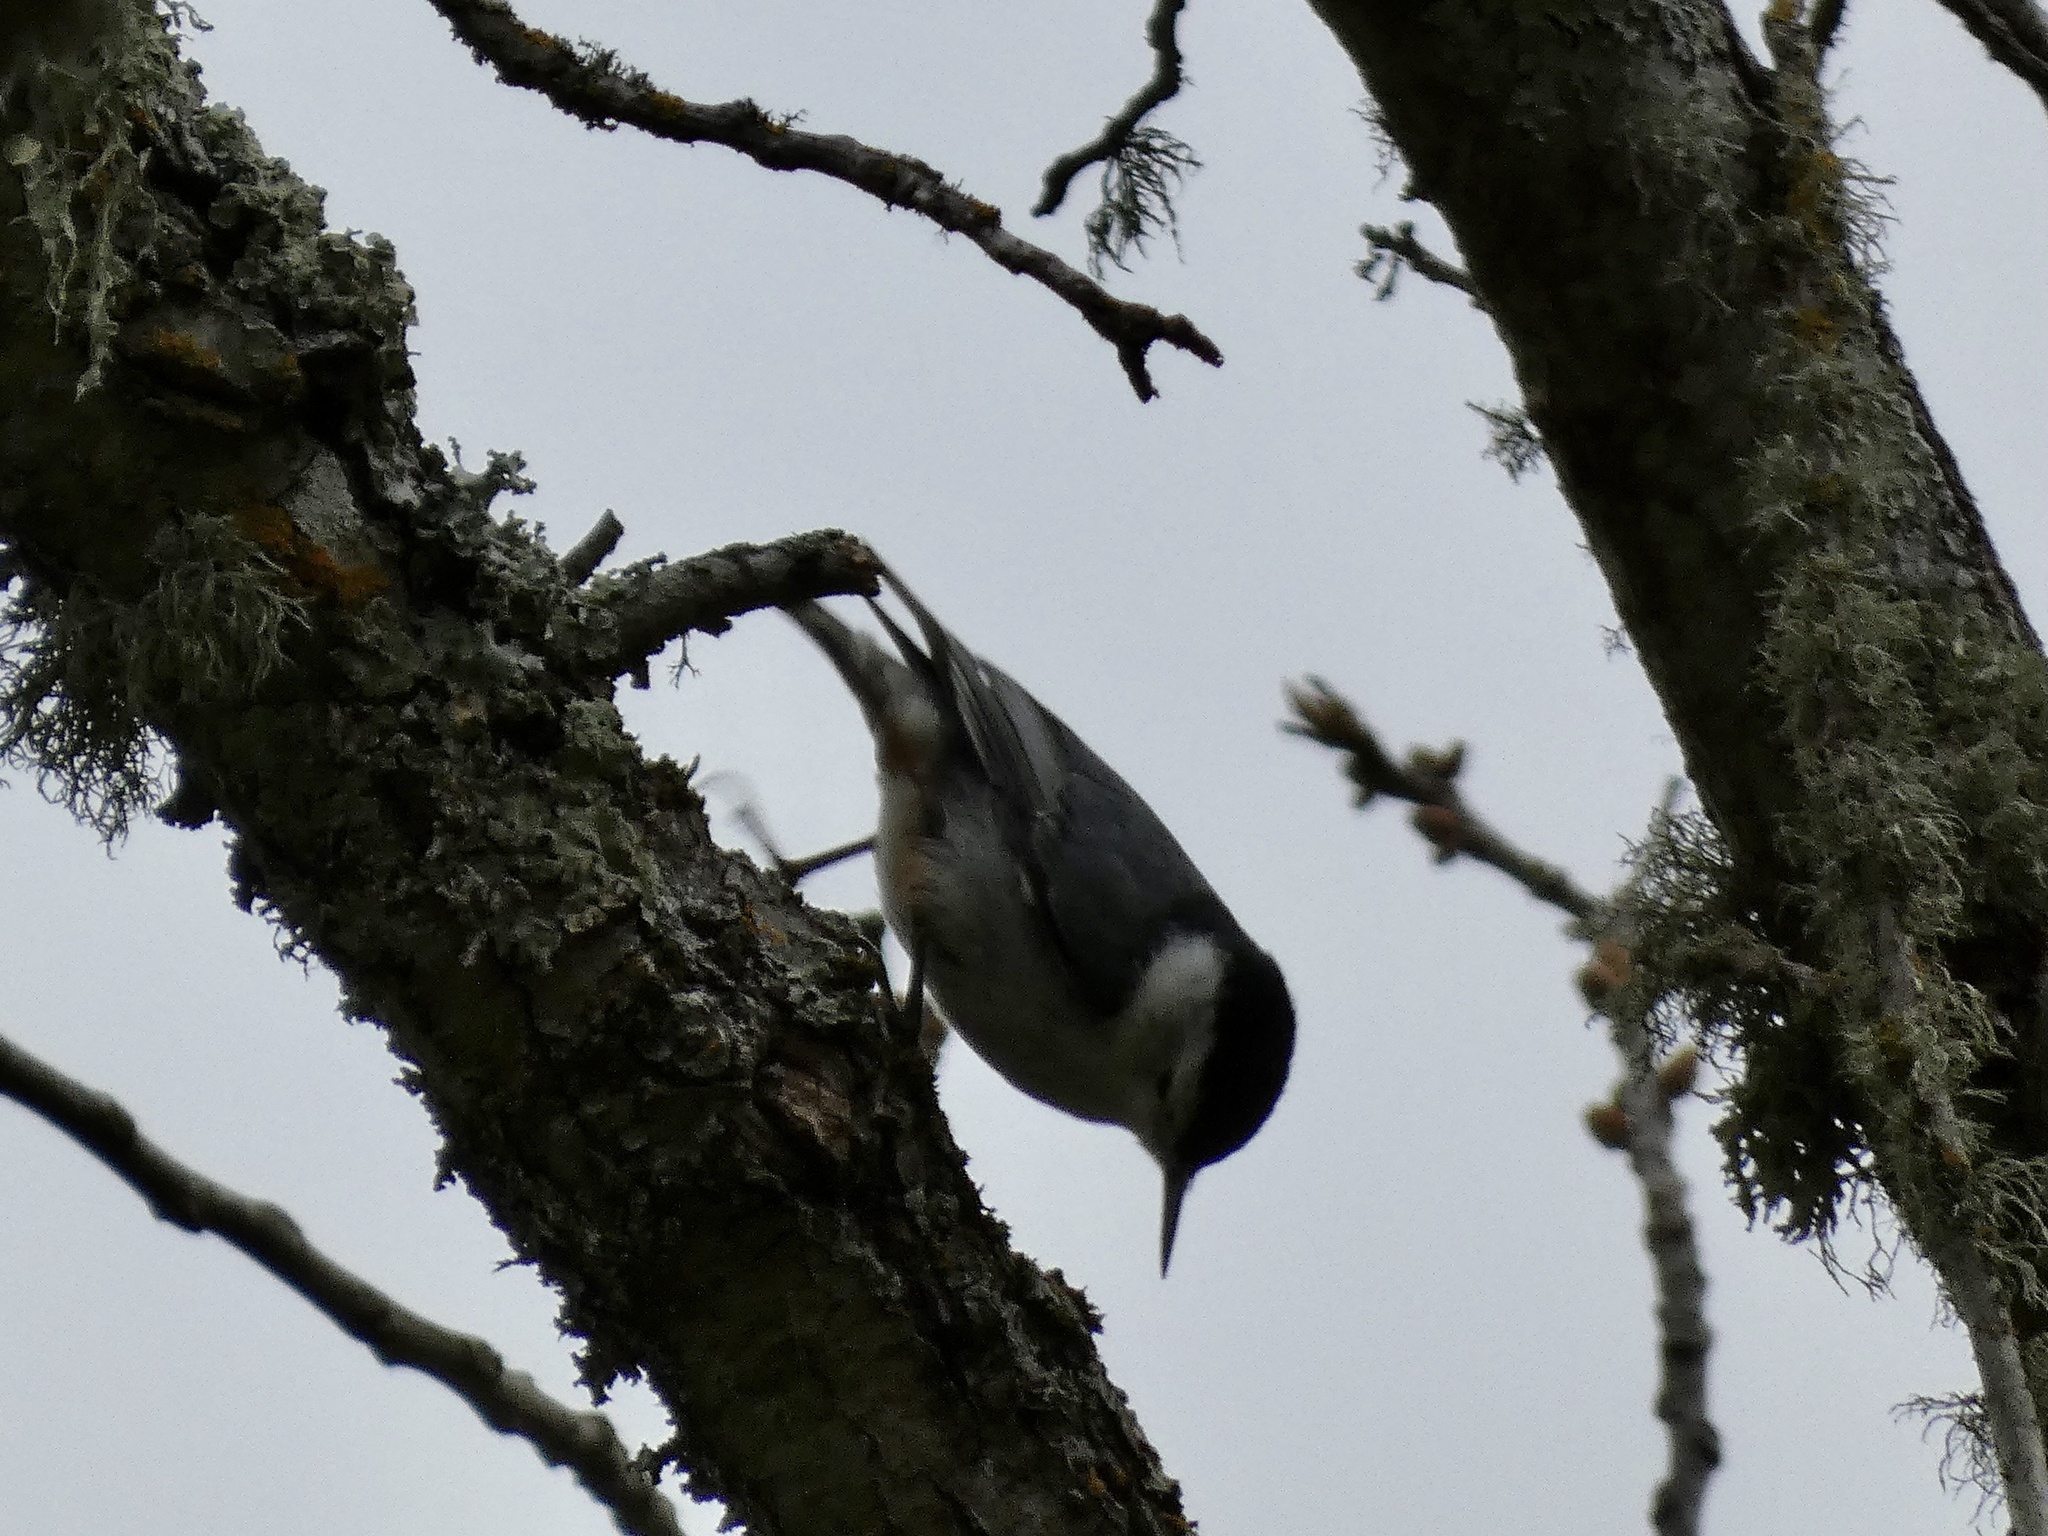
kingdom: Animalia
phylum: Chordata
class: Aves
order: Passeriformes
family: Sittidae
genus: Sitta
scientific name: Sitta carolinensis
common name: White-breasted nuthatch
